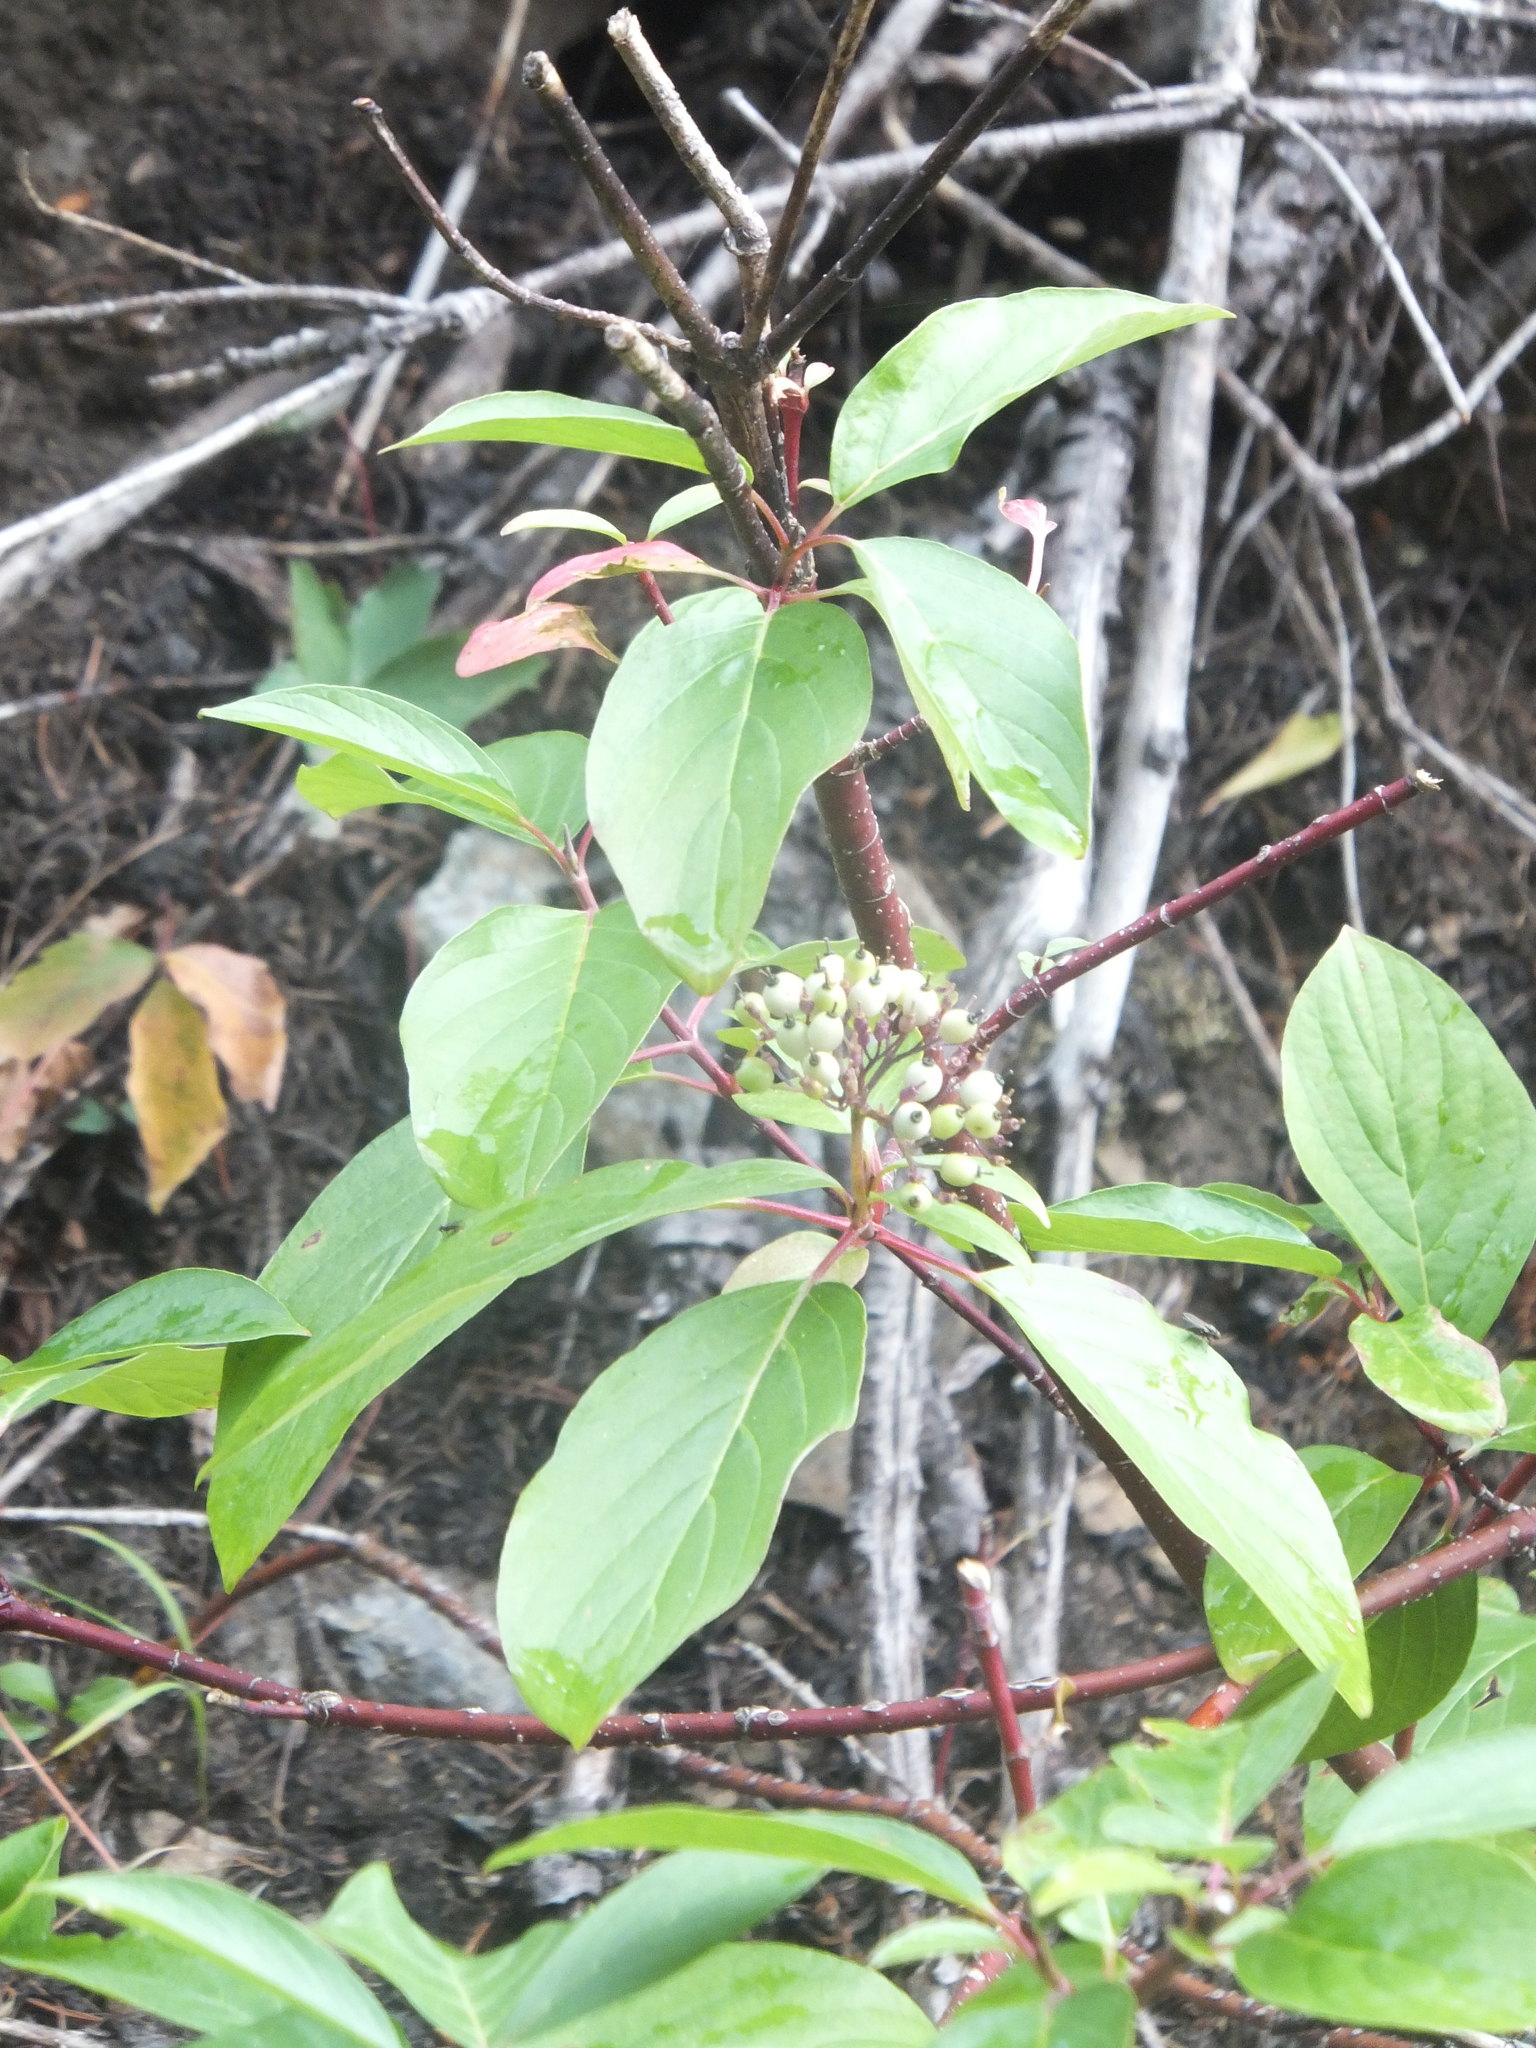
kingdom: Plantae
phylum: Tracheophyta
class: Magnoliopsida
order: Cornales
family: Cornaceae
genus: Cornus
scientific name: Cornus sericea
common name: Red-osier dogwood
